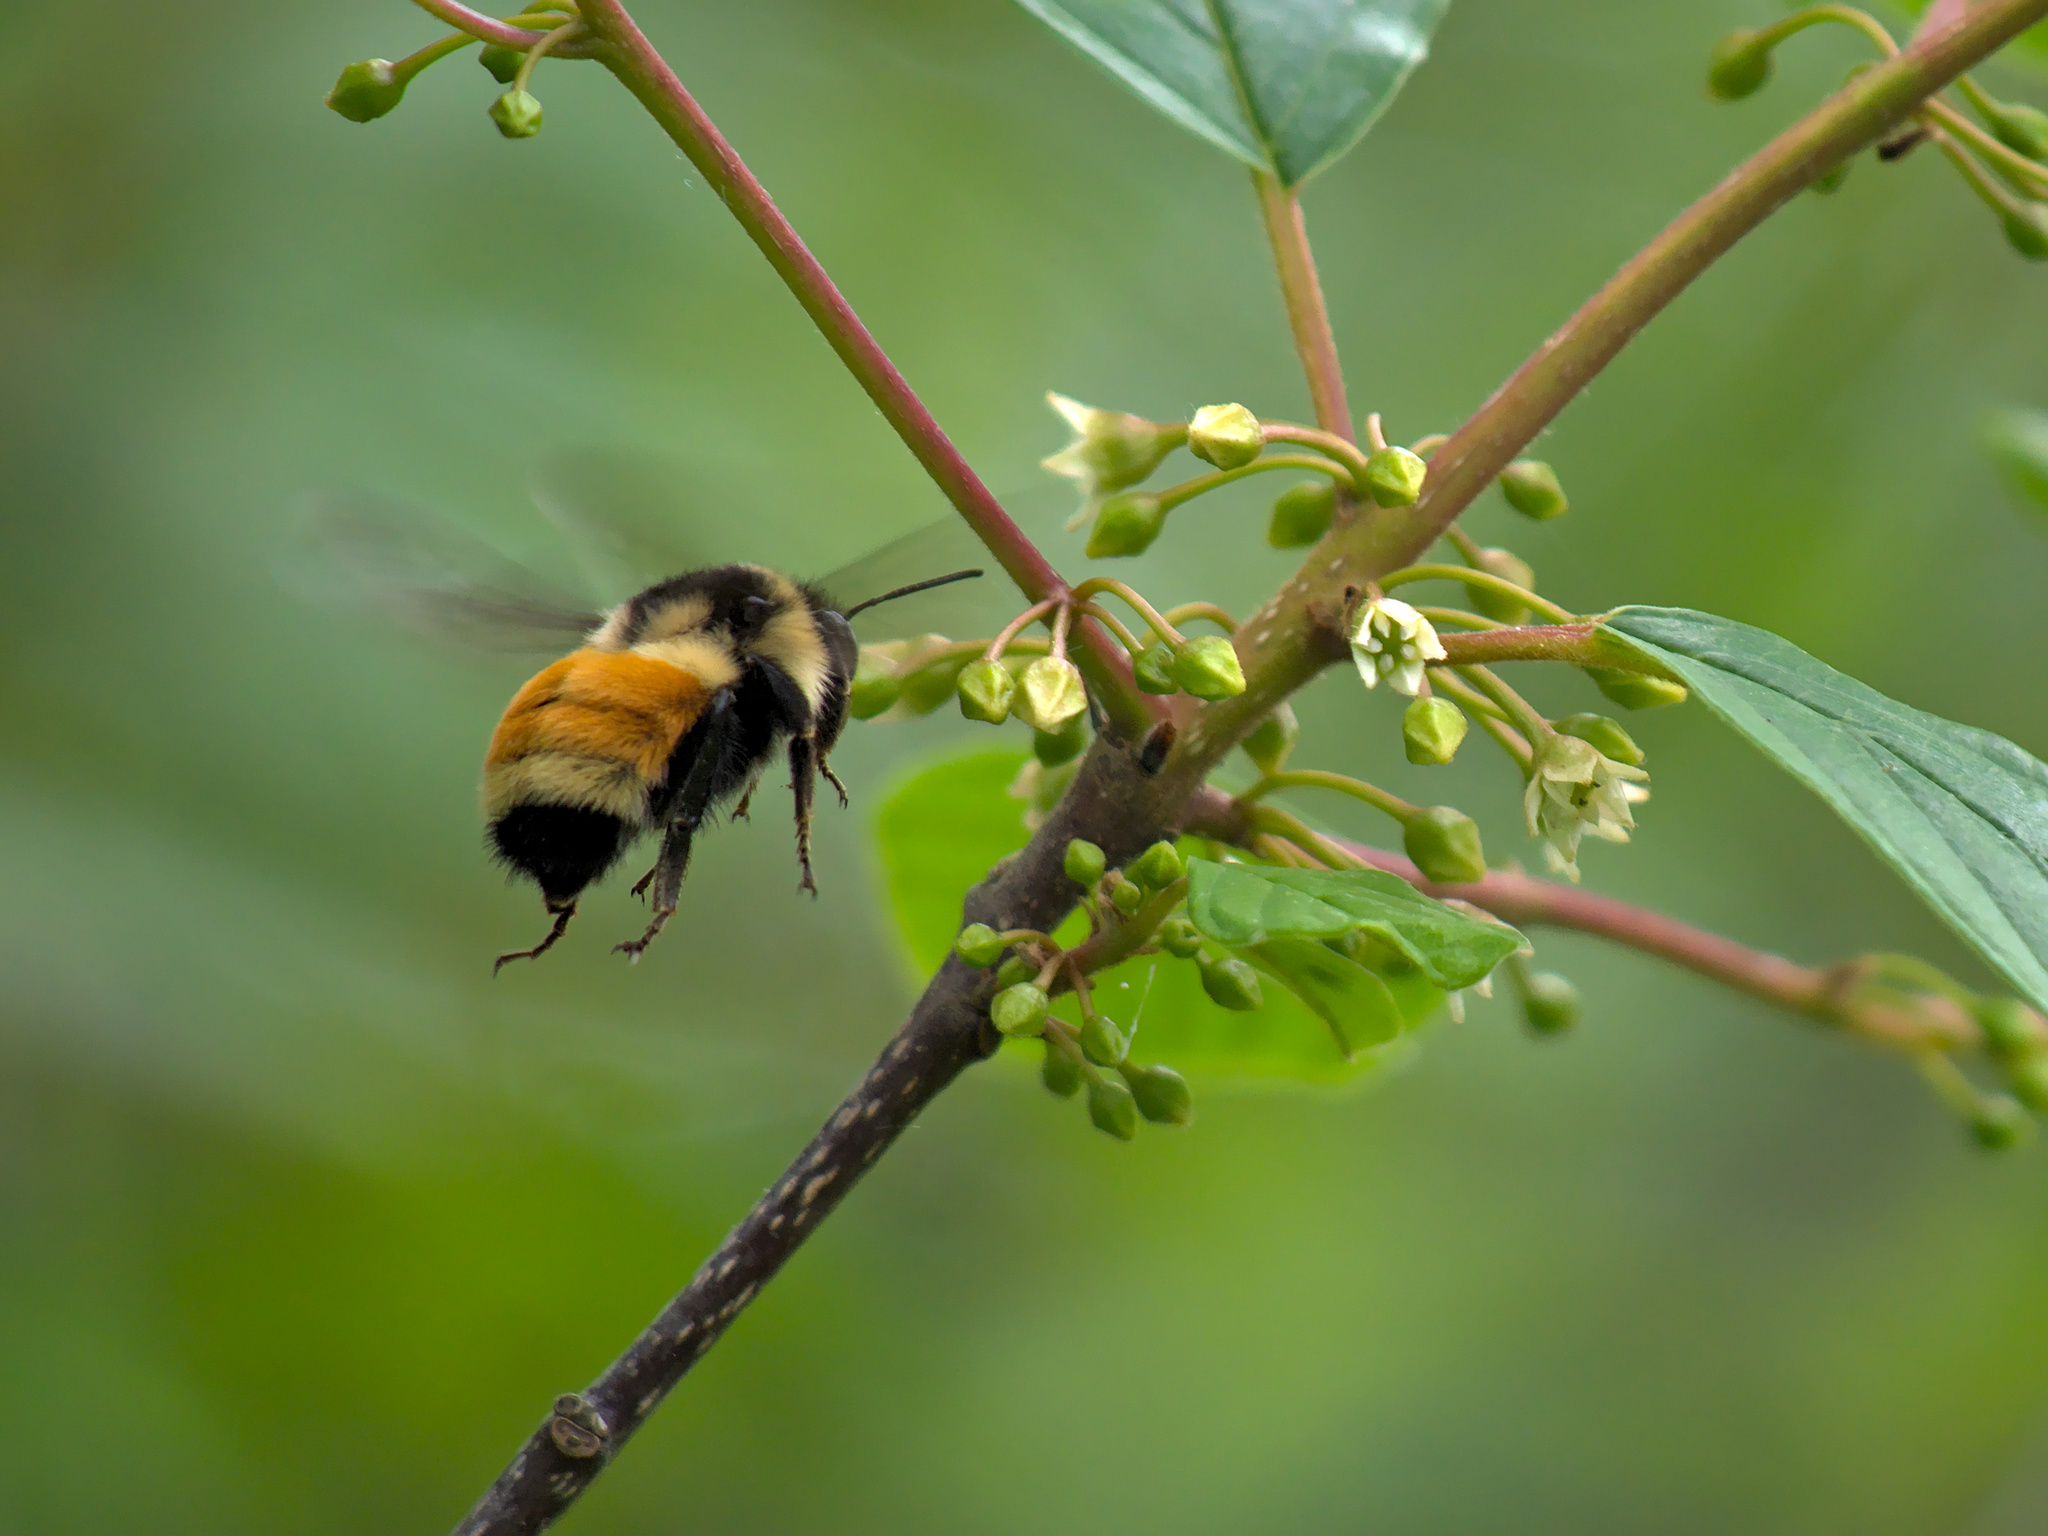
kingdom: Animalia
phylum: Arthropoda
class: Insecta
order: Hymenoptera
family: Apidae
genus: Bombus
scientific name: Bombus ternarius
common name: Tri-colored bumble bee
